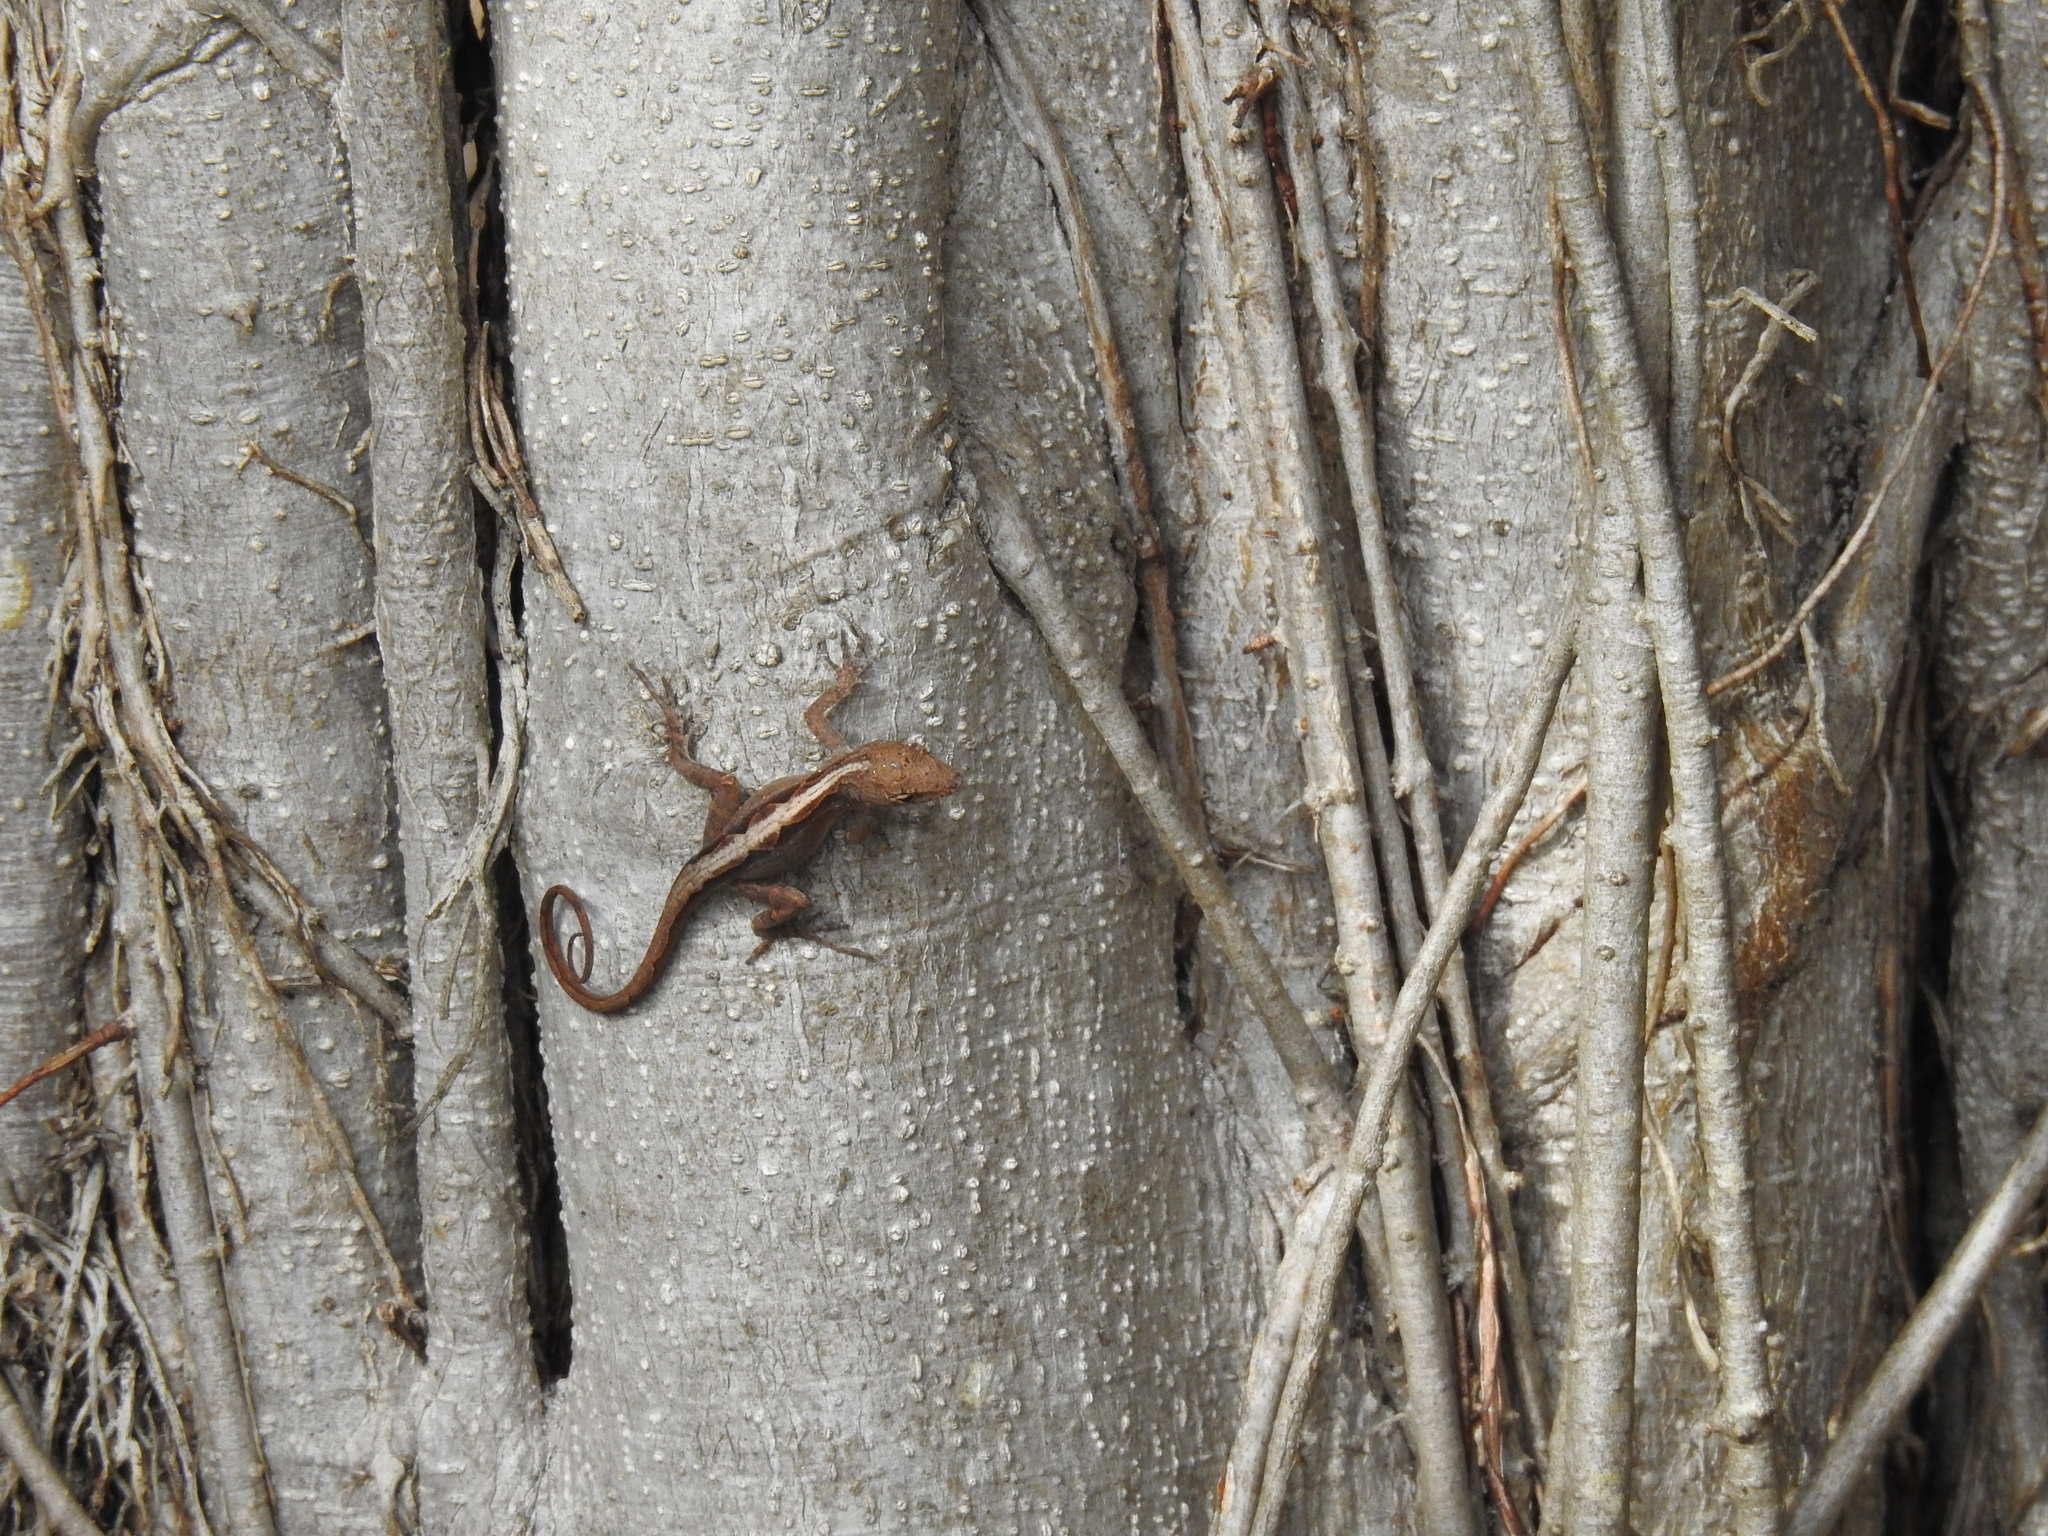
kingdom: Animalia
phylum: Chordata
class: Squamata
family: Dactyloidae
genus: Anolis
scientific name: Anolis sagrei
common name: Brown anole
